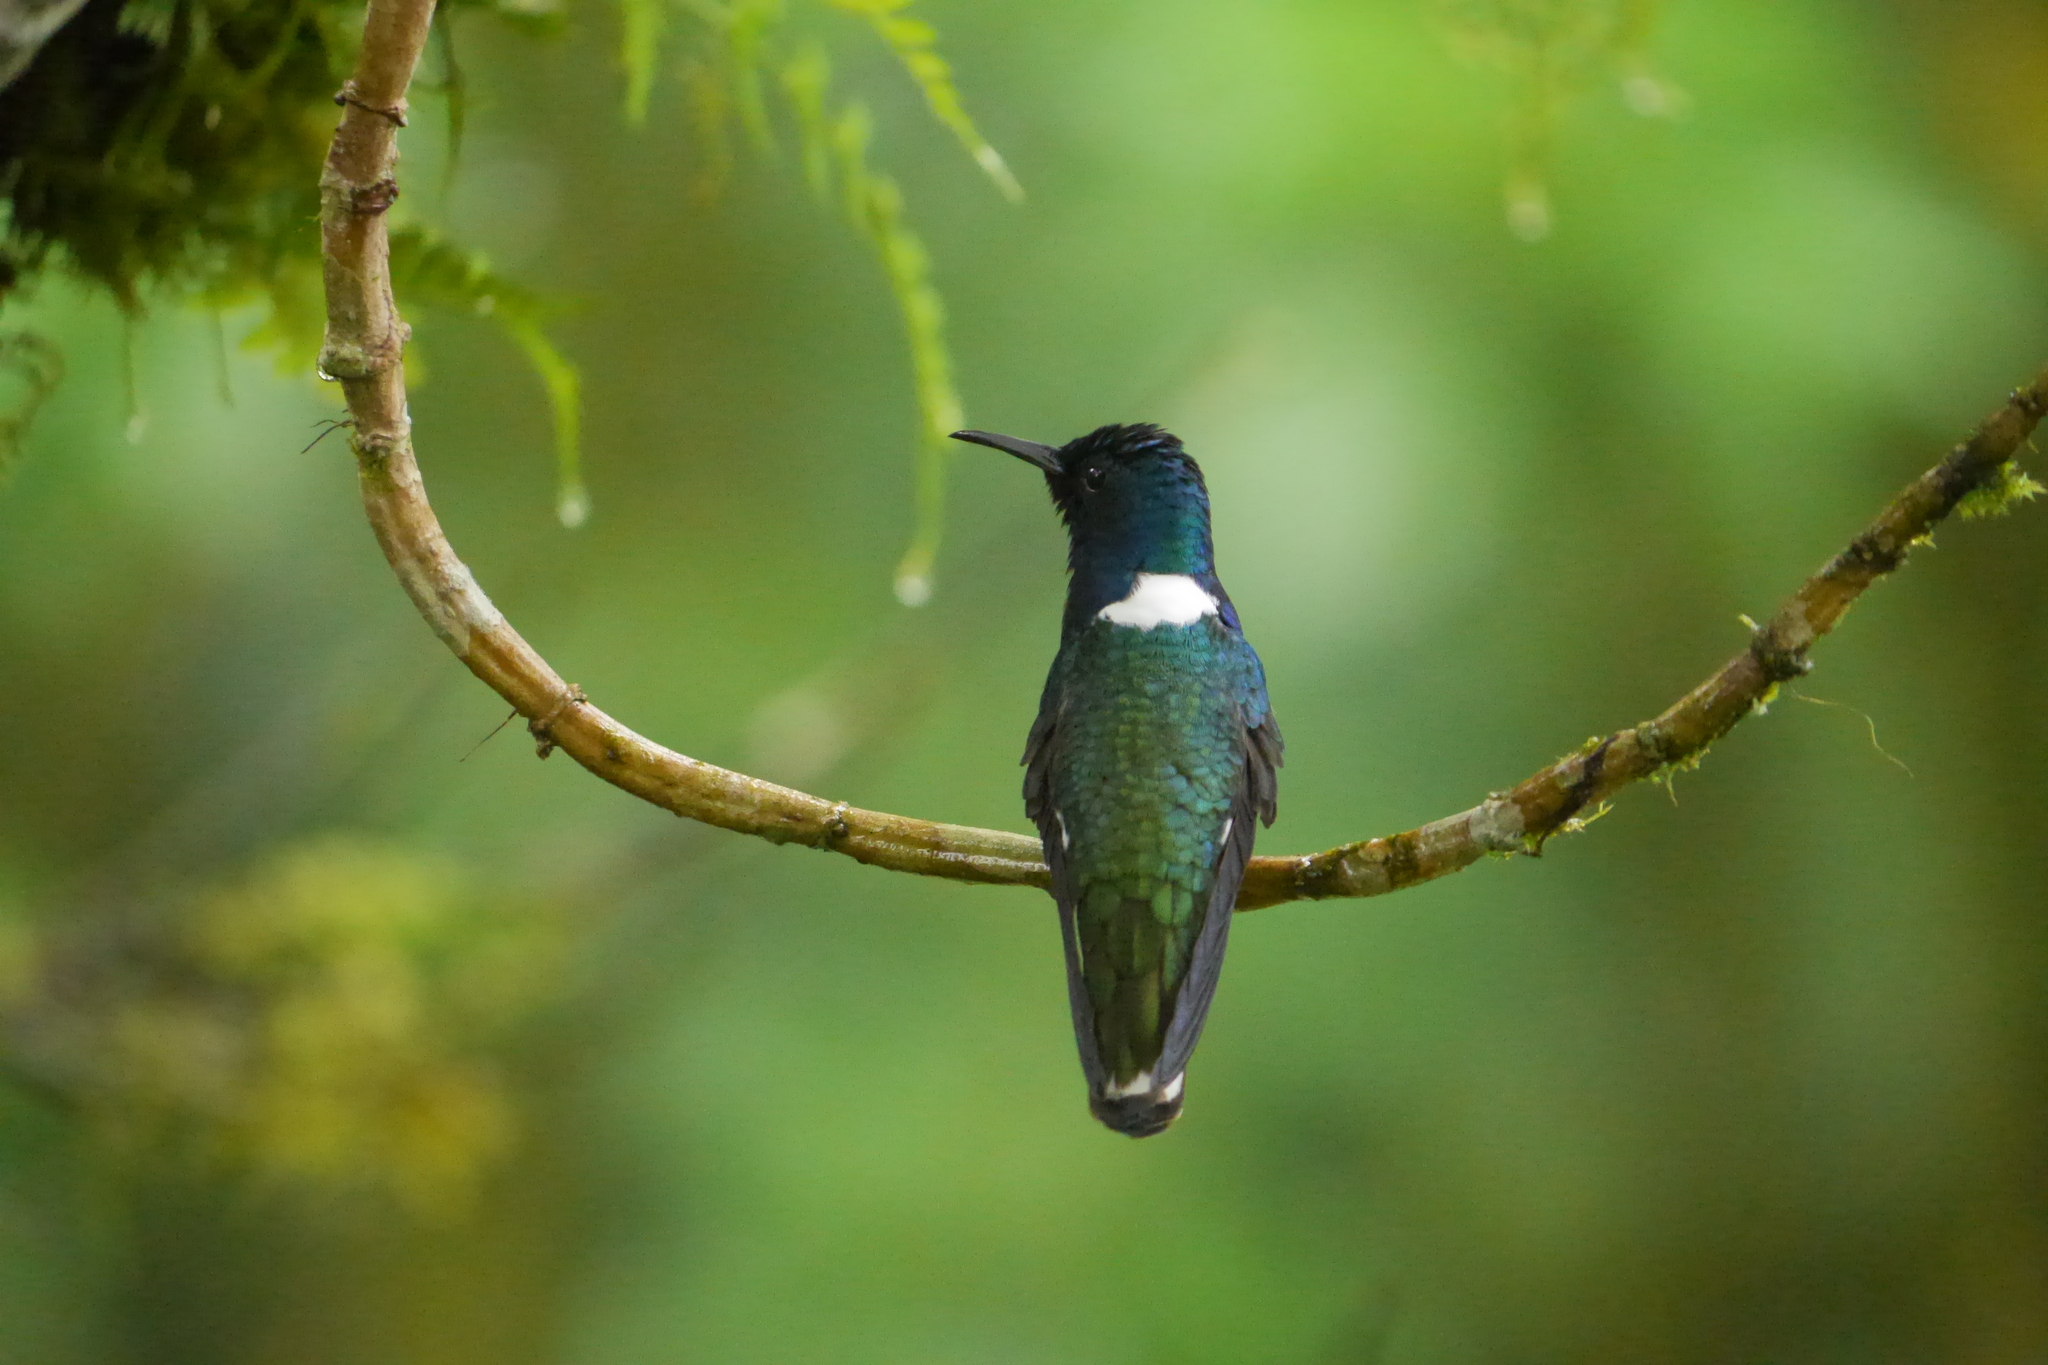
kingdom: Animalia
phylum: Chordata
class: Aves
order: Apodiformes
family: Trochilidae
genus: Florisuga
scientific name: Florisuga mellivora
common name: White-necked jacobin
